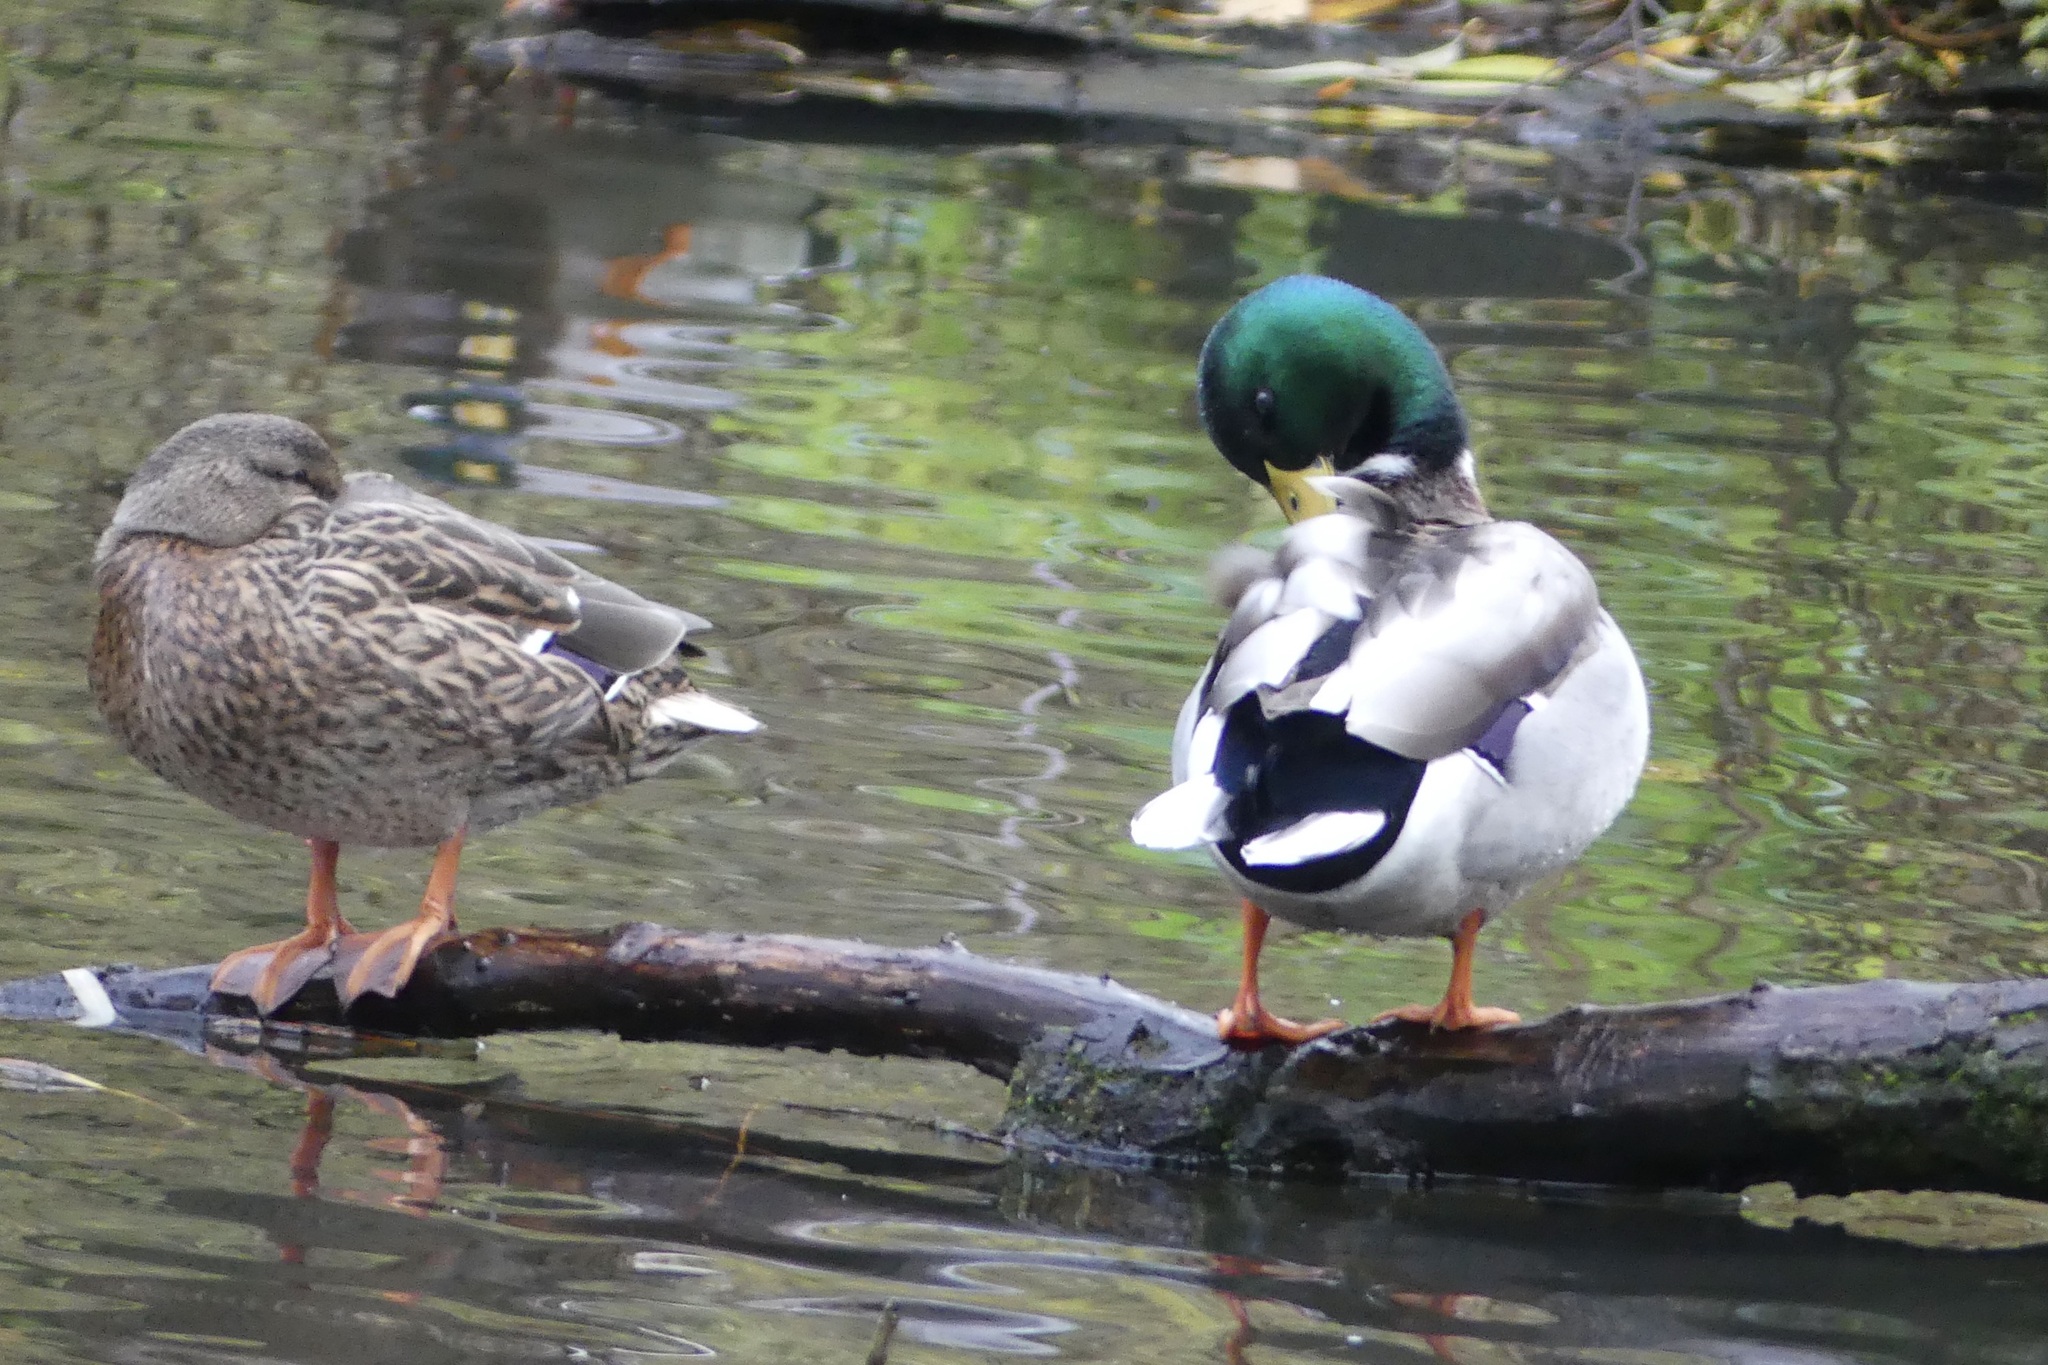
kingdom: Animalia
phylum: Chordata
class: Aves
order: Anseriformes
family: Anatidae
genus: Anas
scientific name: Anas platyrhynchos
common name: Mallard
